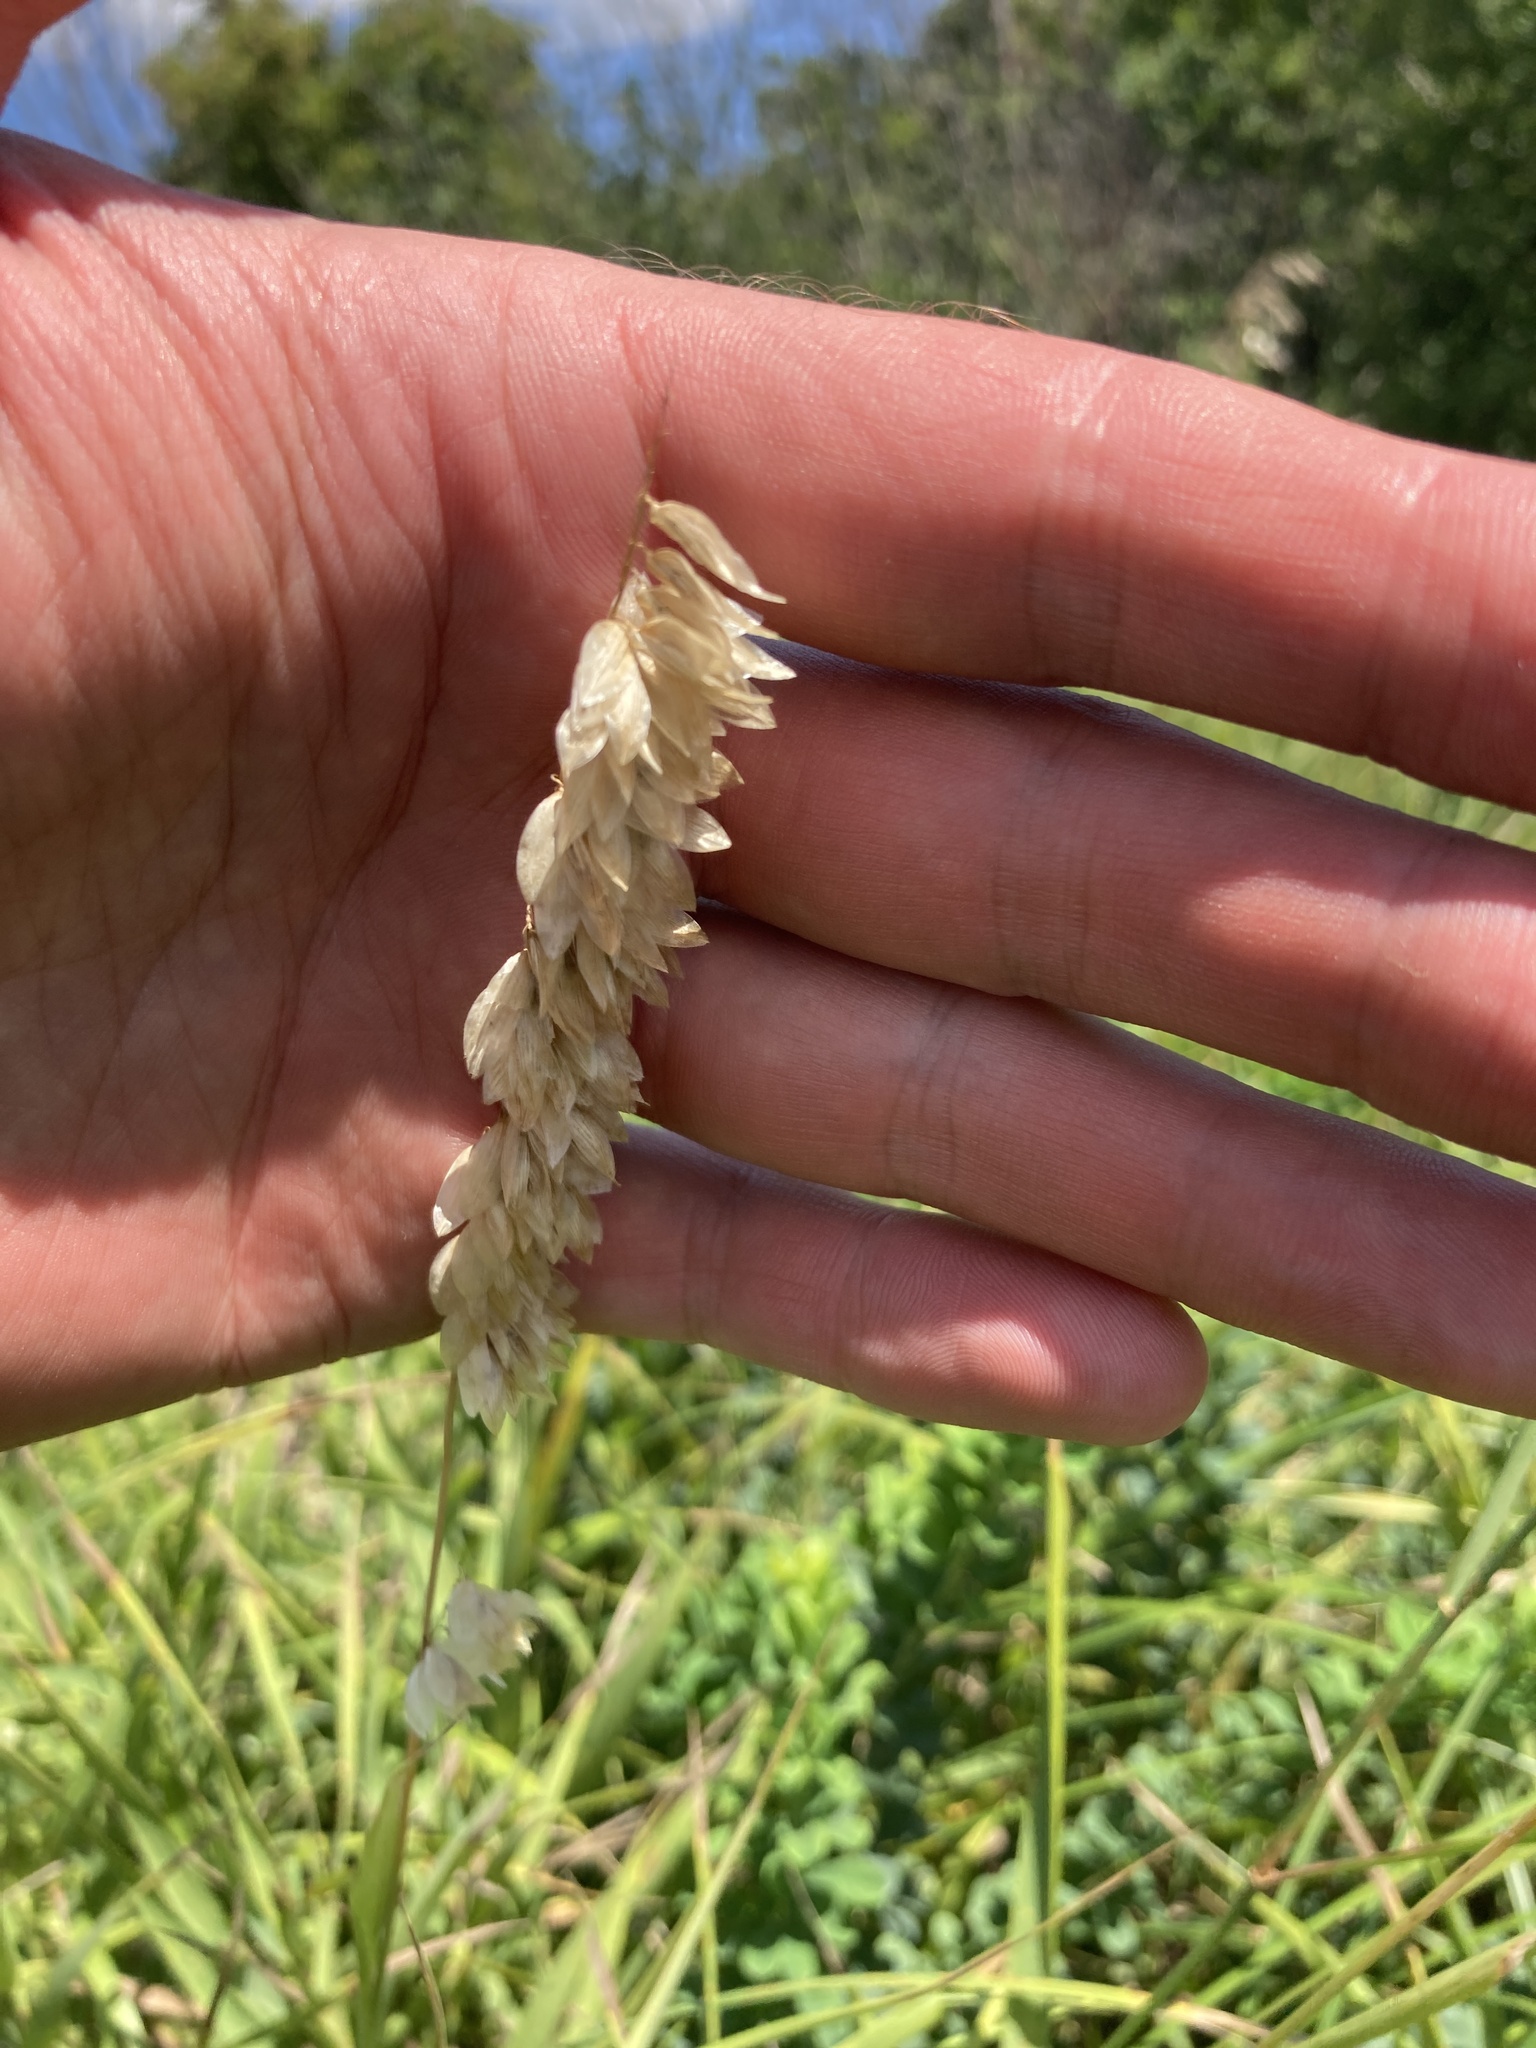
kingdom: Plantae
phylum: Tracheophyta
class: Liliopsida
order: Poales
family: Poaceae
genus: Melica
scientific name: Melica altissima
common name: Siberian melicgrass
